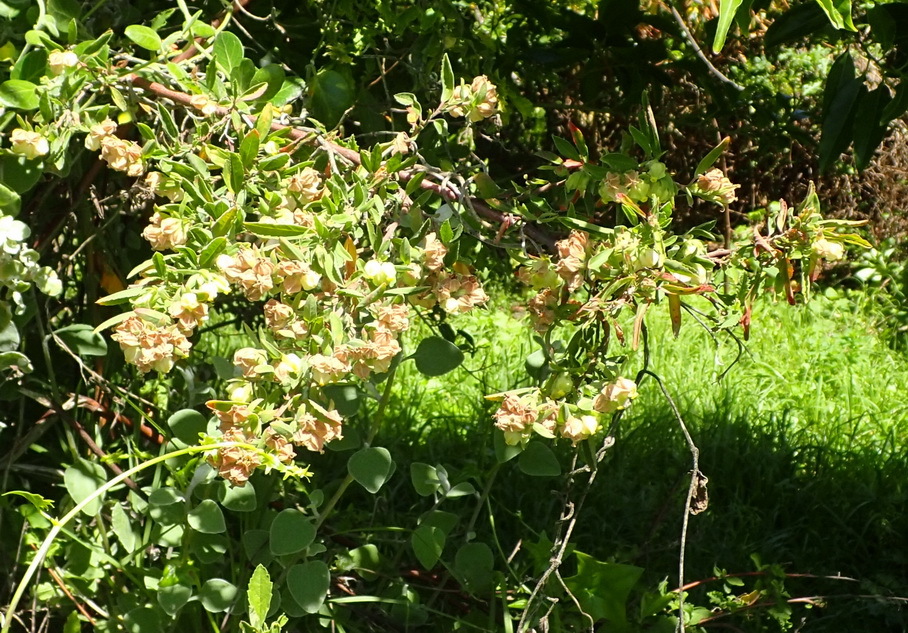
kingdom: Plantae
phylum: Tracheophyta
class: Magnoliopsida
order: Malvales
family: Malvaceae
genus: Hermannia
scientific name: Hermannia hyssopifolia
